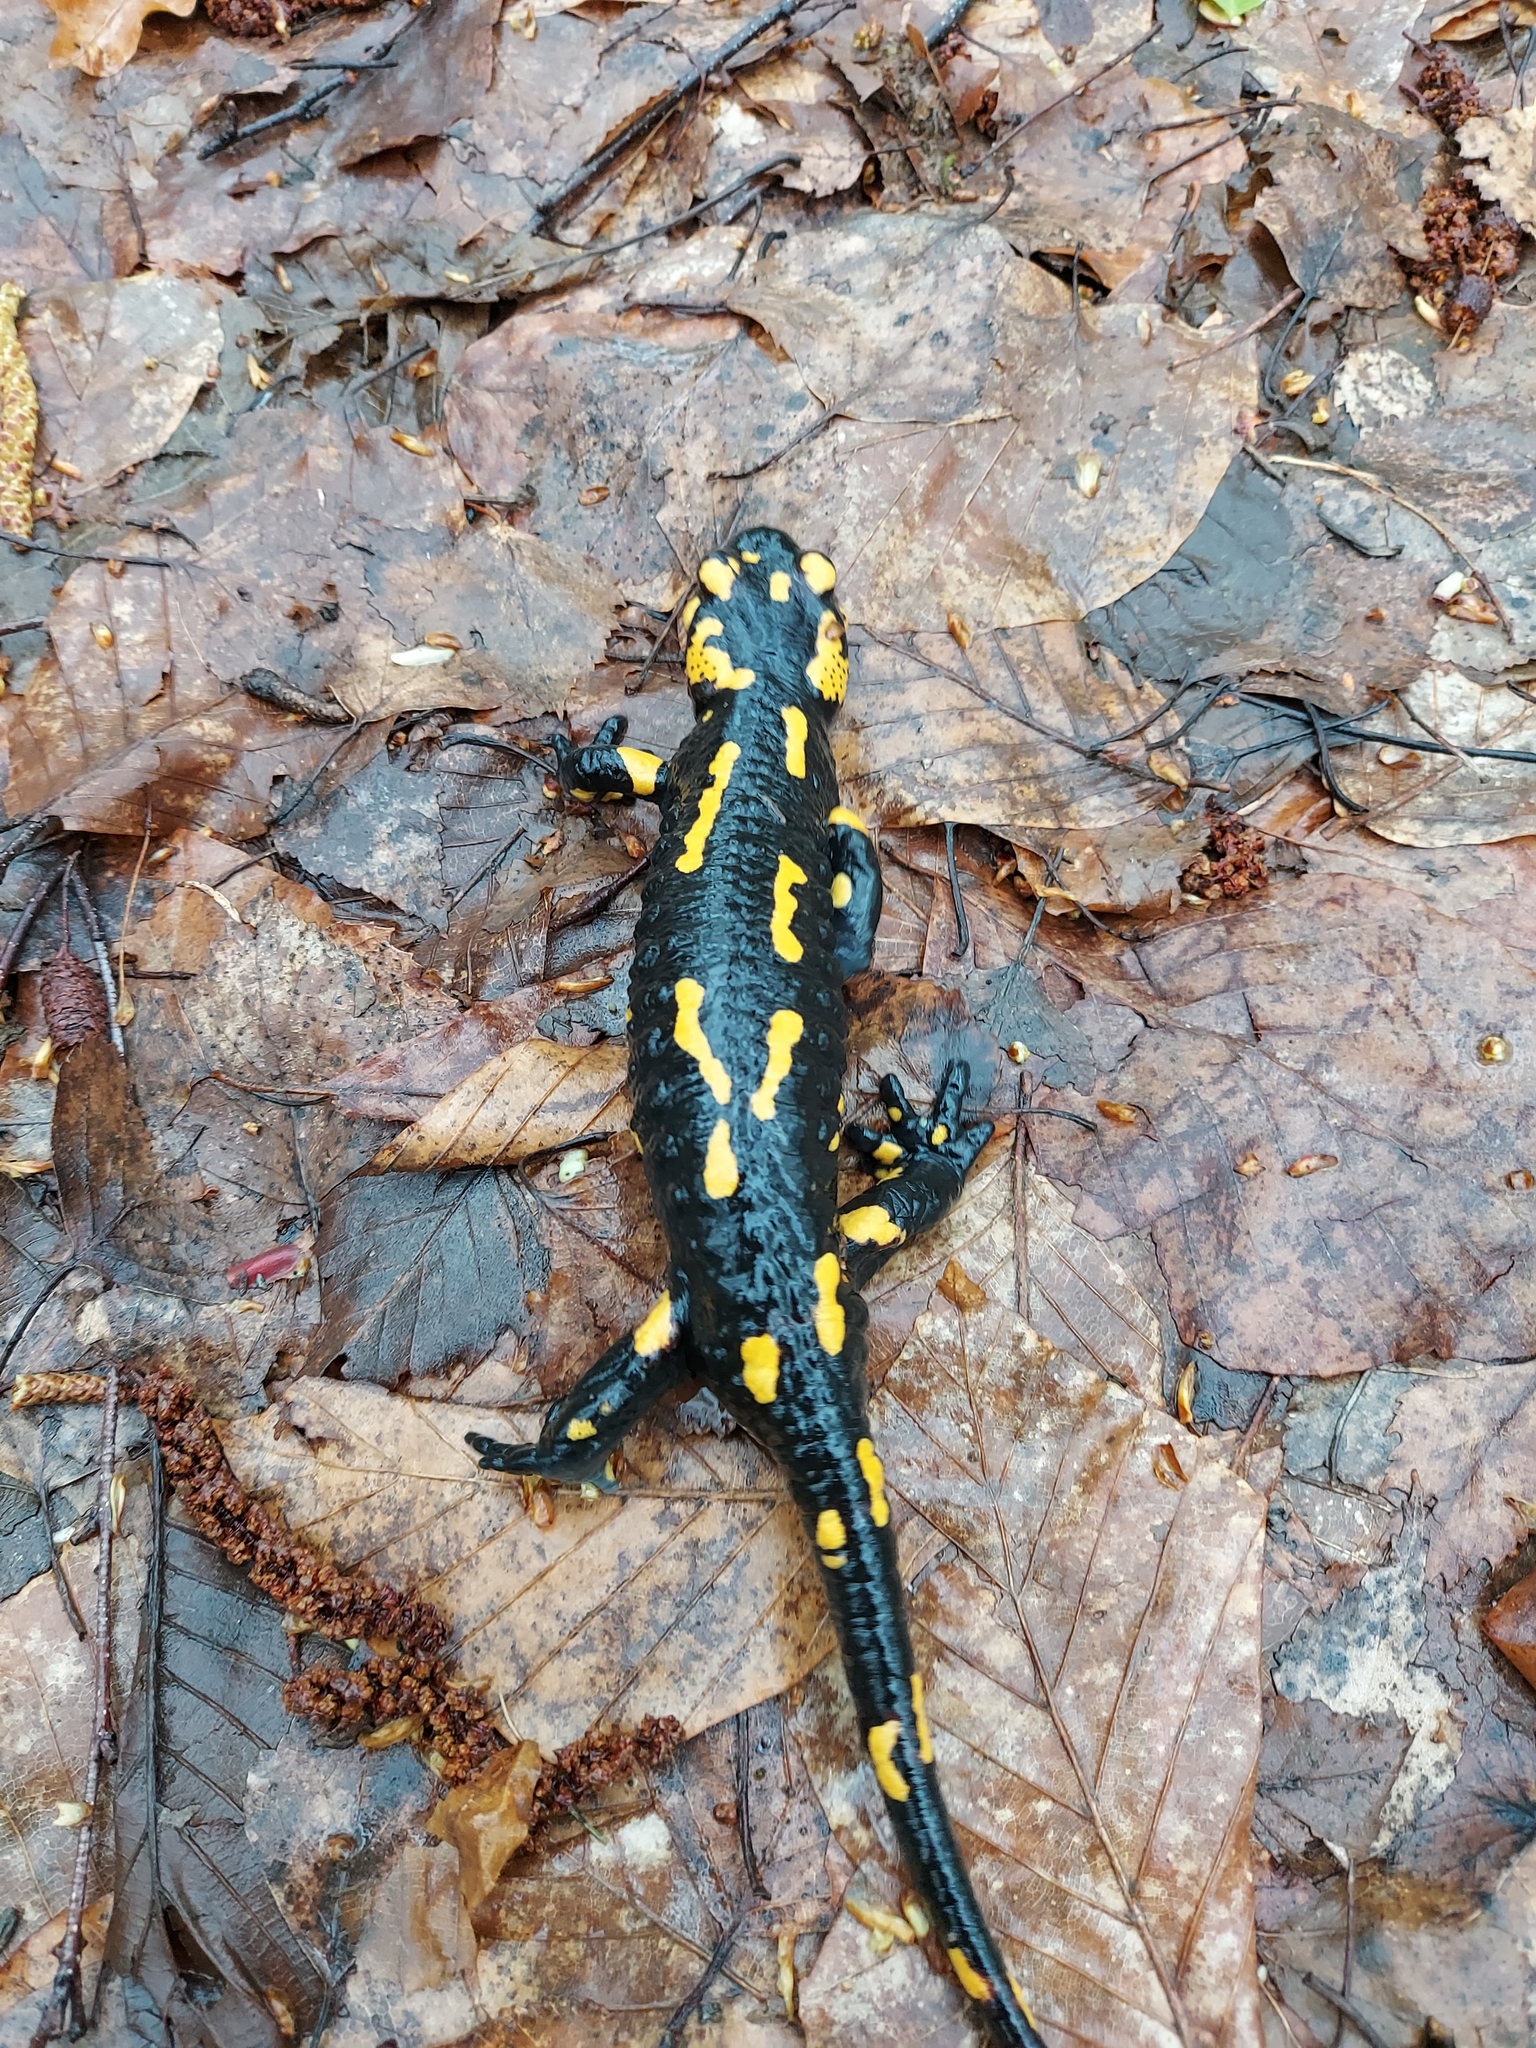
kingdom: Animalia
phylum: Chordata
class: Amphibia
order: Caudata
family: Salamandridae
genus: Salamandra
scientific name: Salamandra salamandra
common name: Fire salamander
